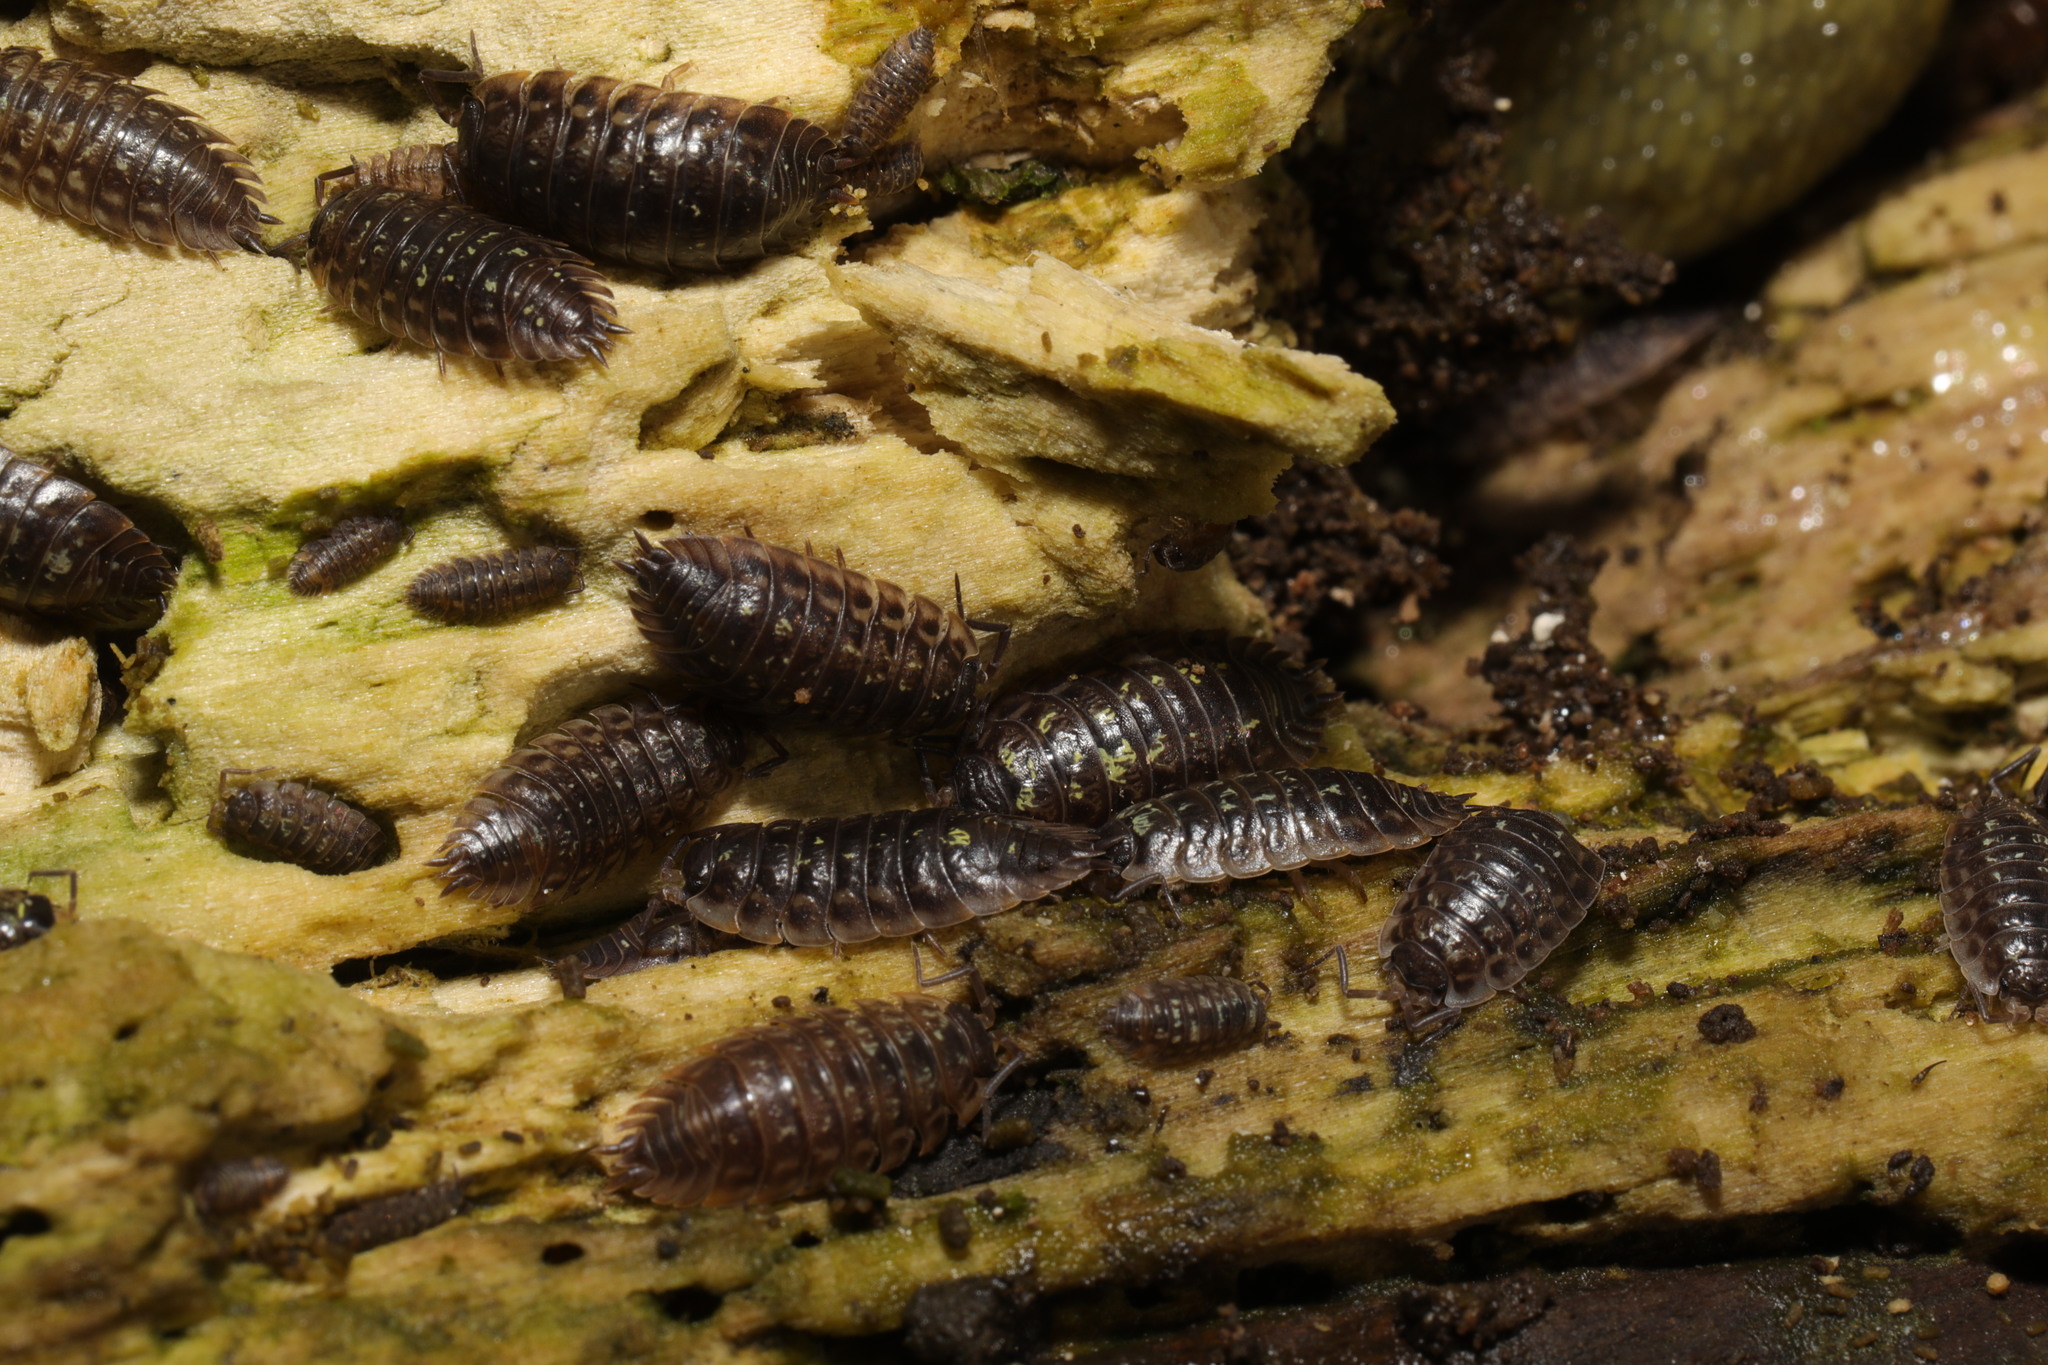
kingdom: Animalia
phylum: Arthropoda
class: Malacostraca
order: Isopoda
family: Oniscidae
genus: Oniscus
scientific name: Oniscus asellus
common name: Common shiny woodlouse
